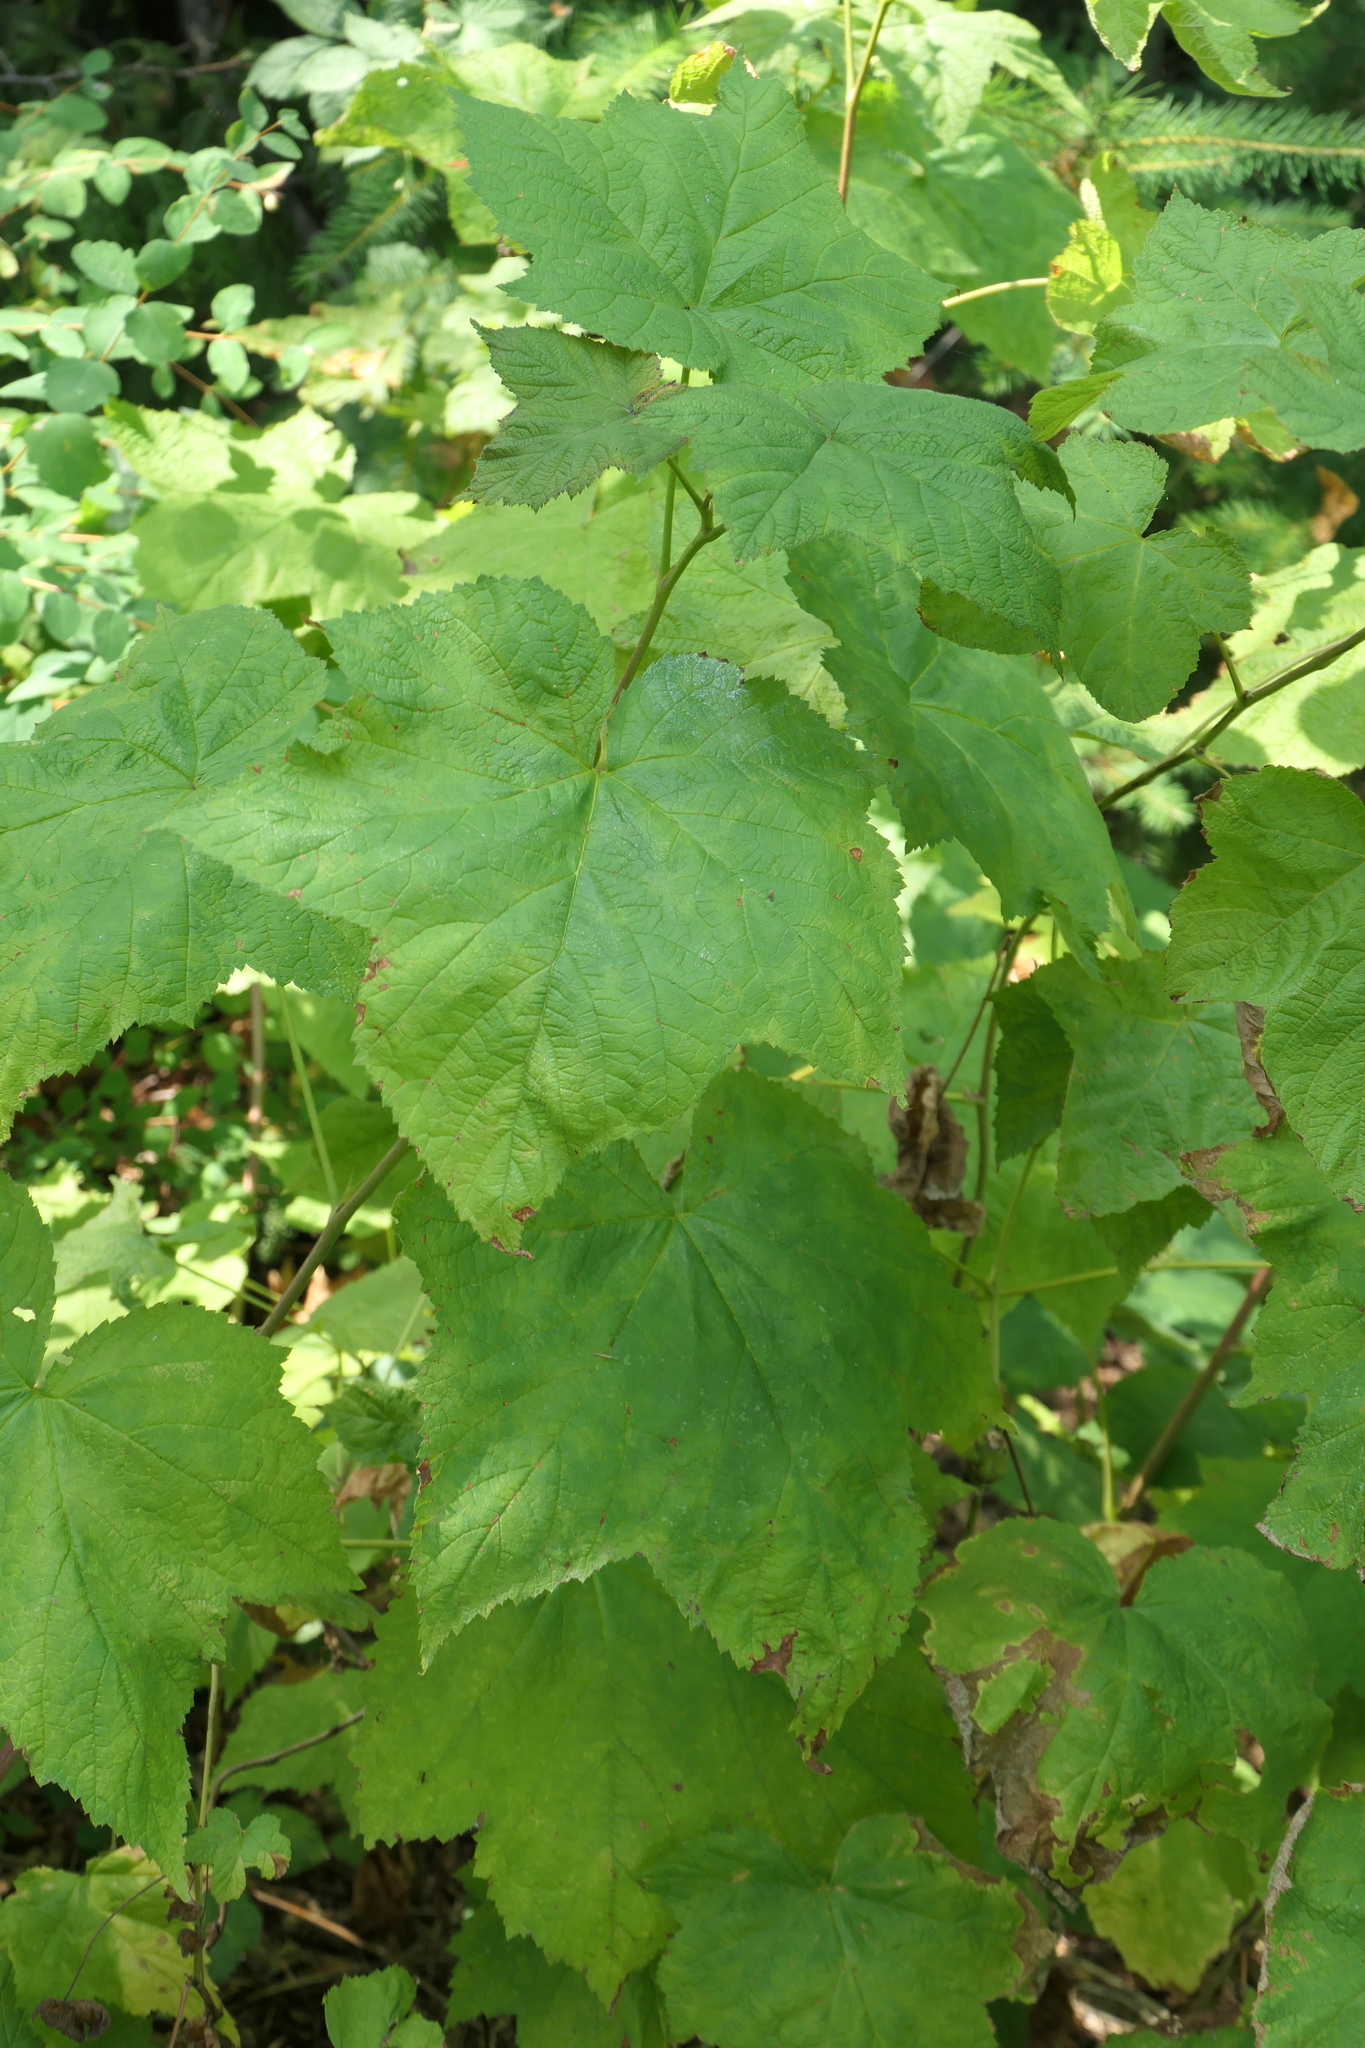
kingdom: Plantae
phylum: Tracheophyta
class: Magnoliopsida
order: Rosales
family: Rosaceae
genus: Rubus
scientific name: Rubus parviflorus
